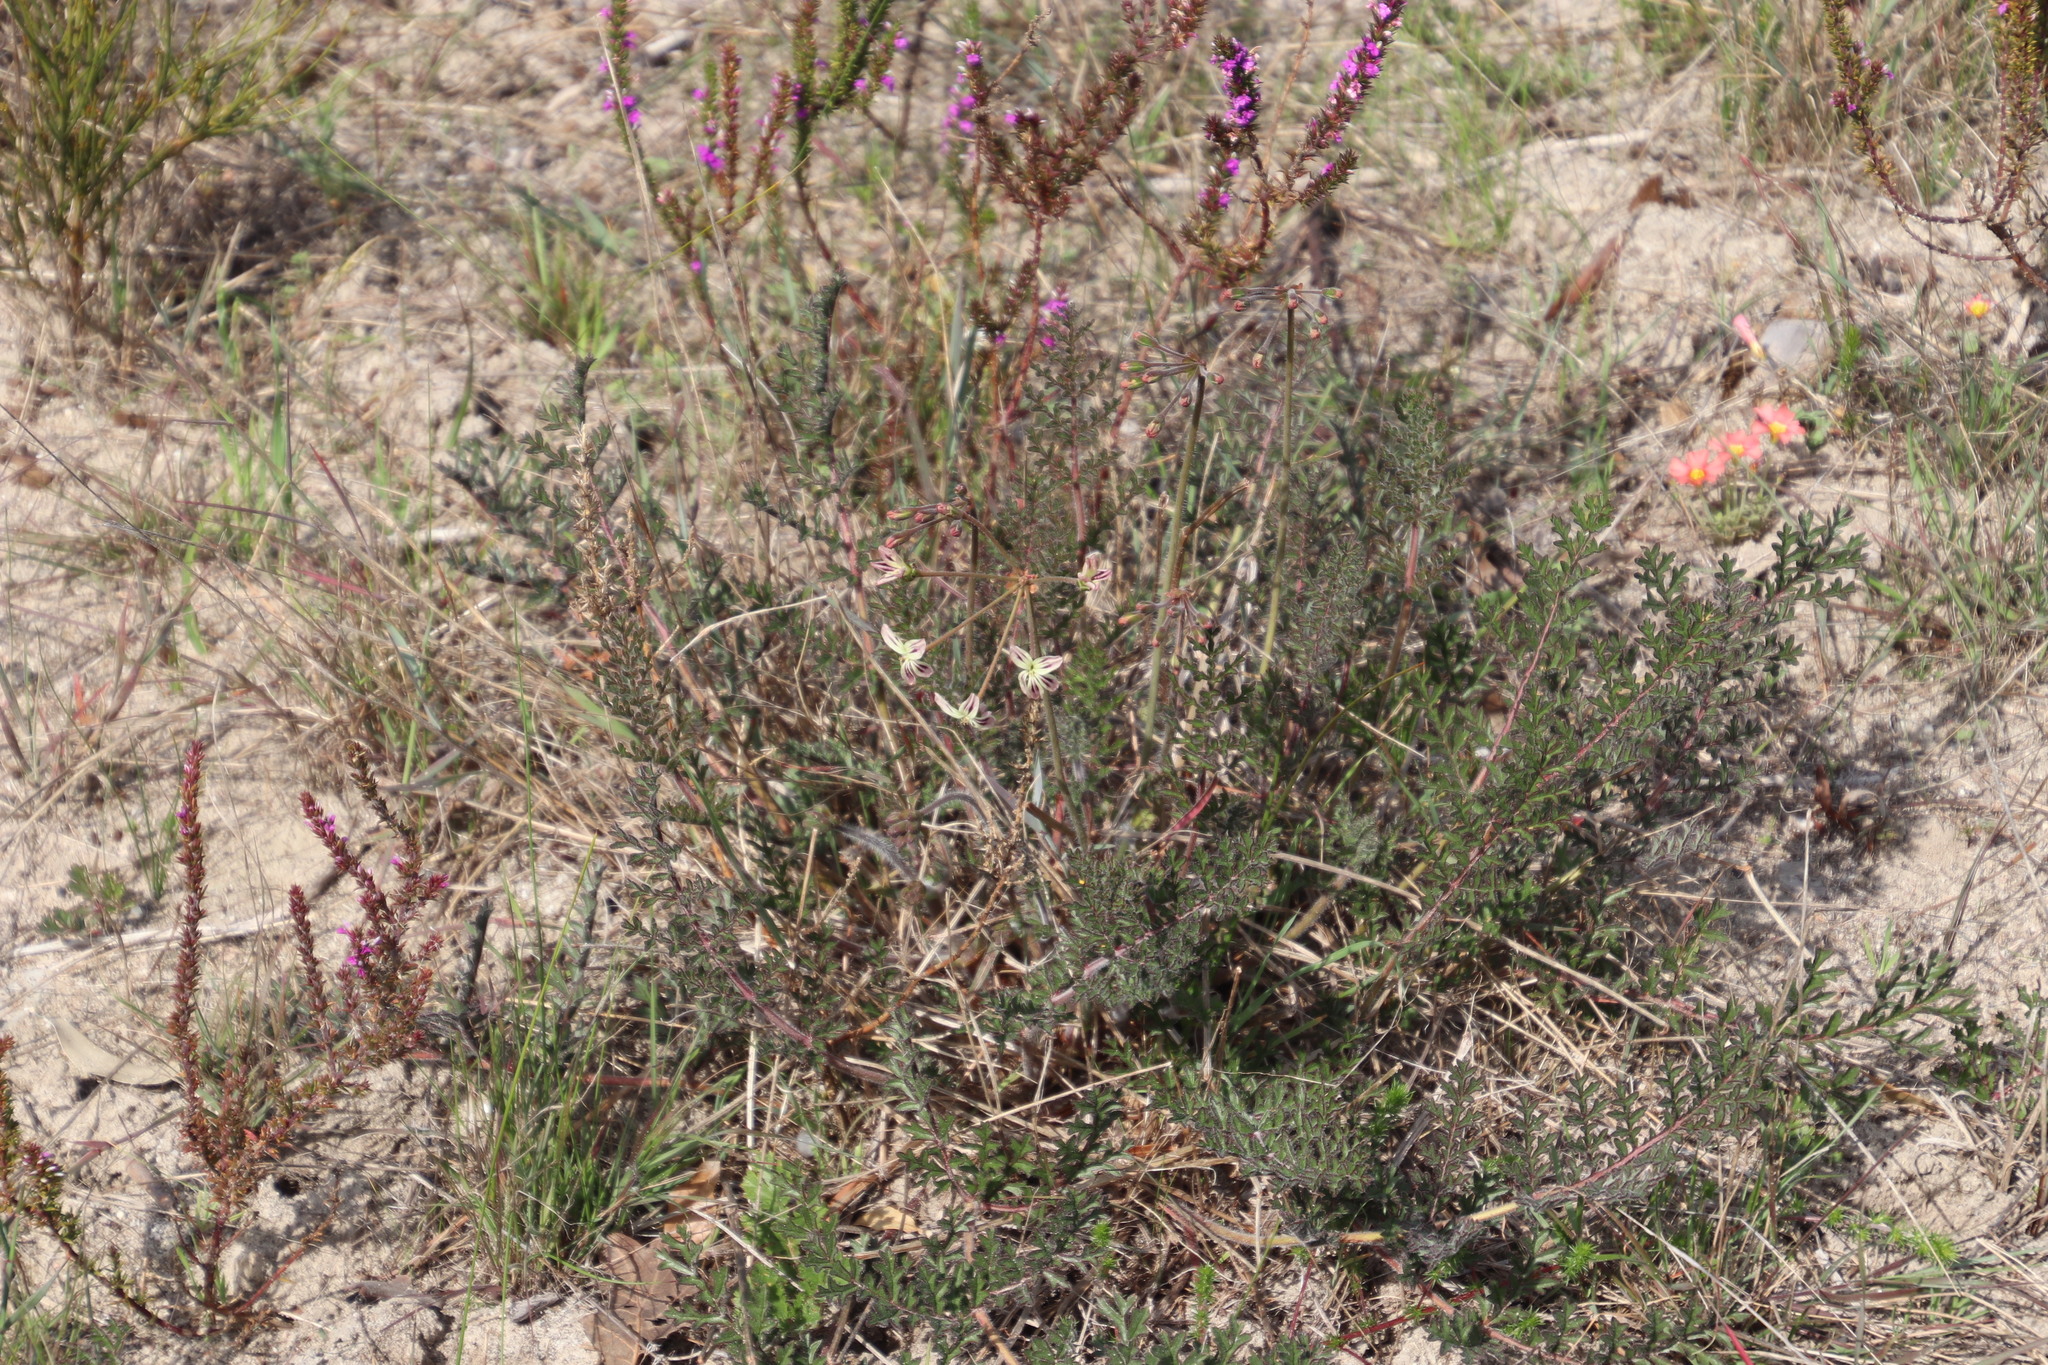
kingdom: Plantae
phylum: Tracheophyta
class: Magnoliopsida
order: Geraniales
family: Geraniaceae
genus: Pelargonium
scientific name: Pelargonium triste
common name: Night-scent pelargonium
